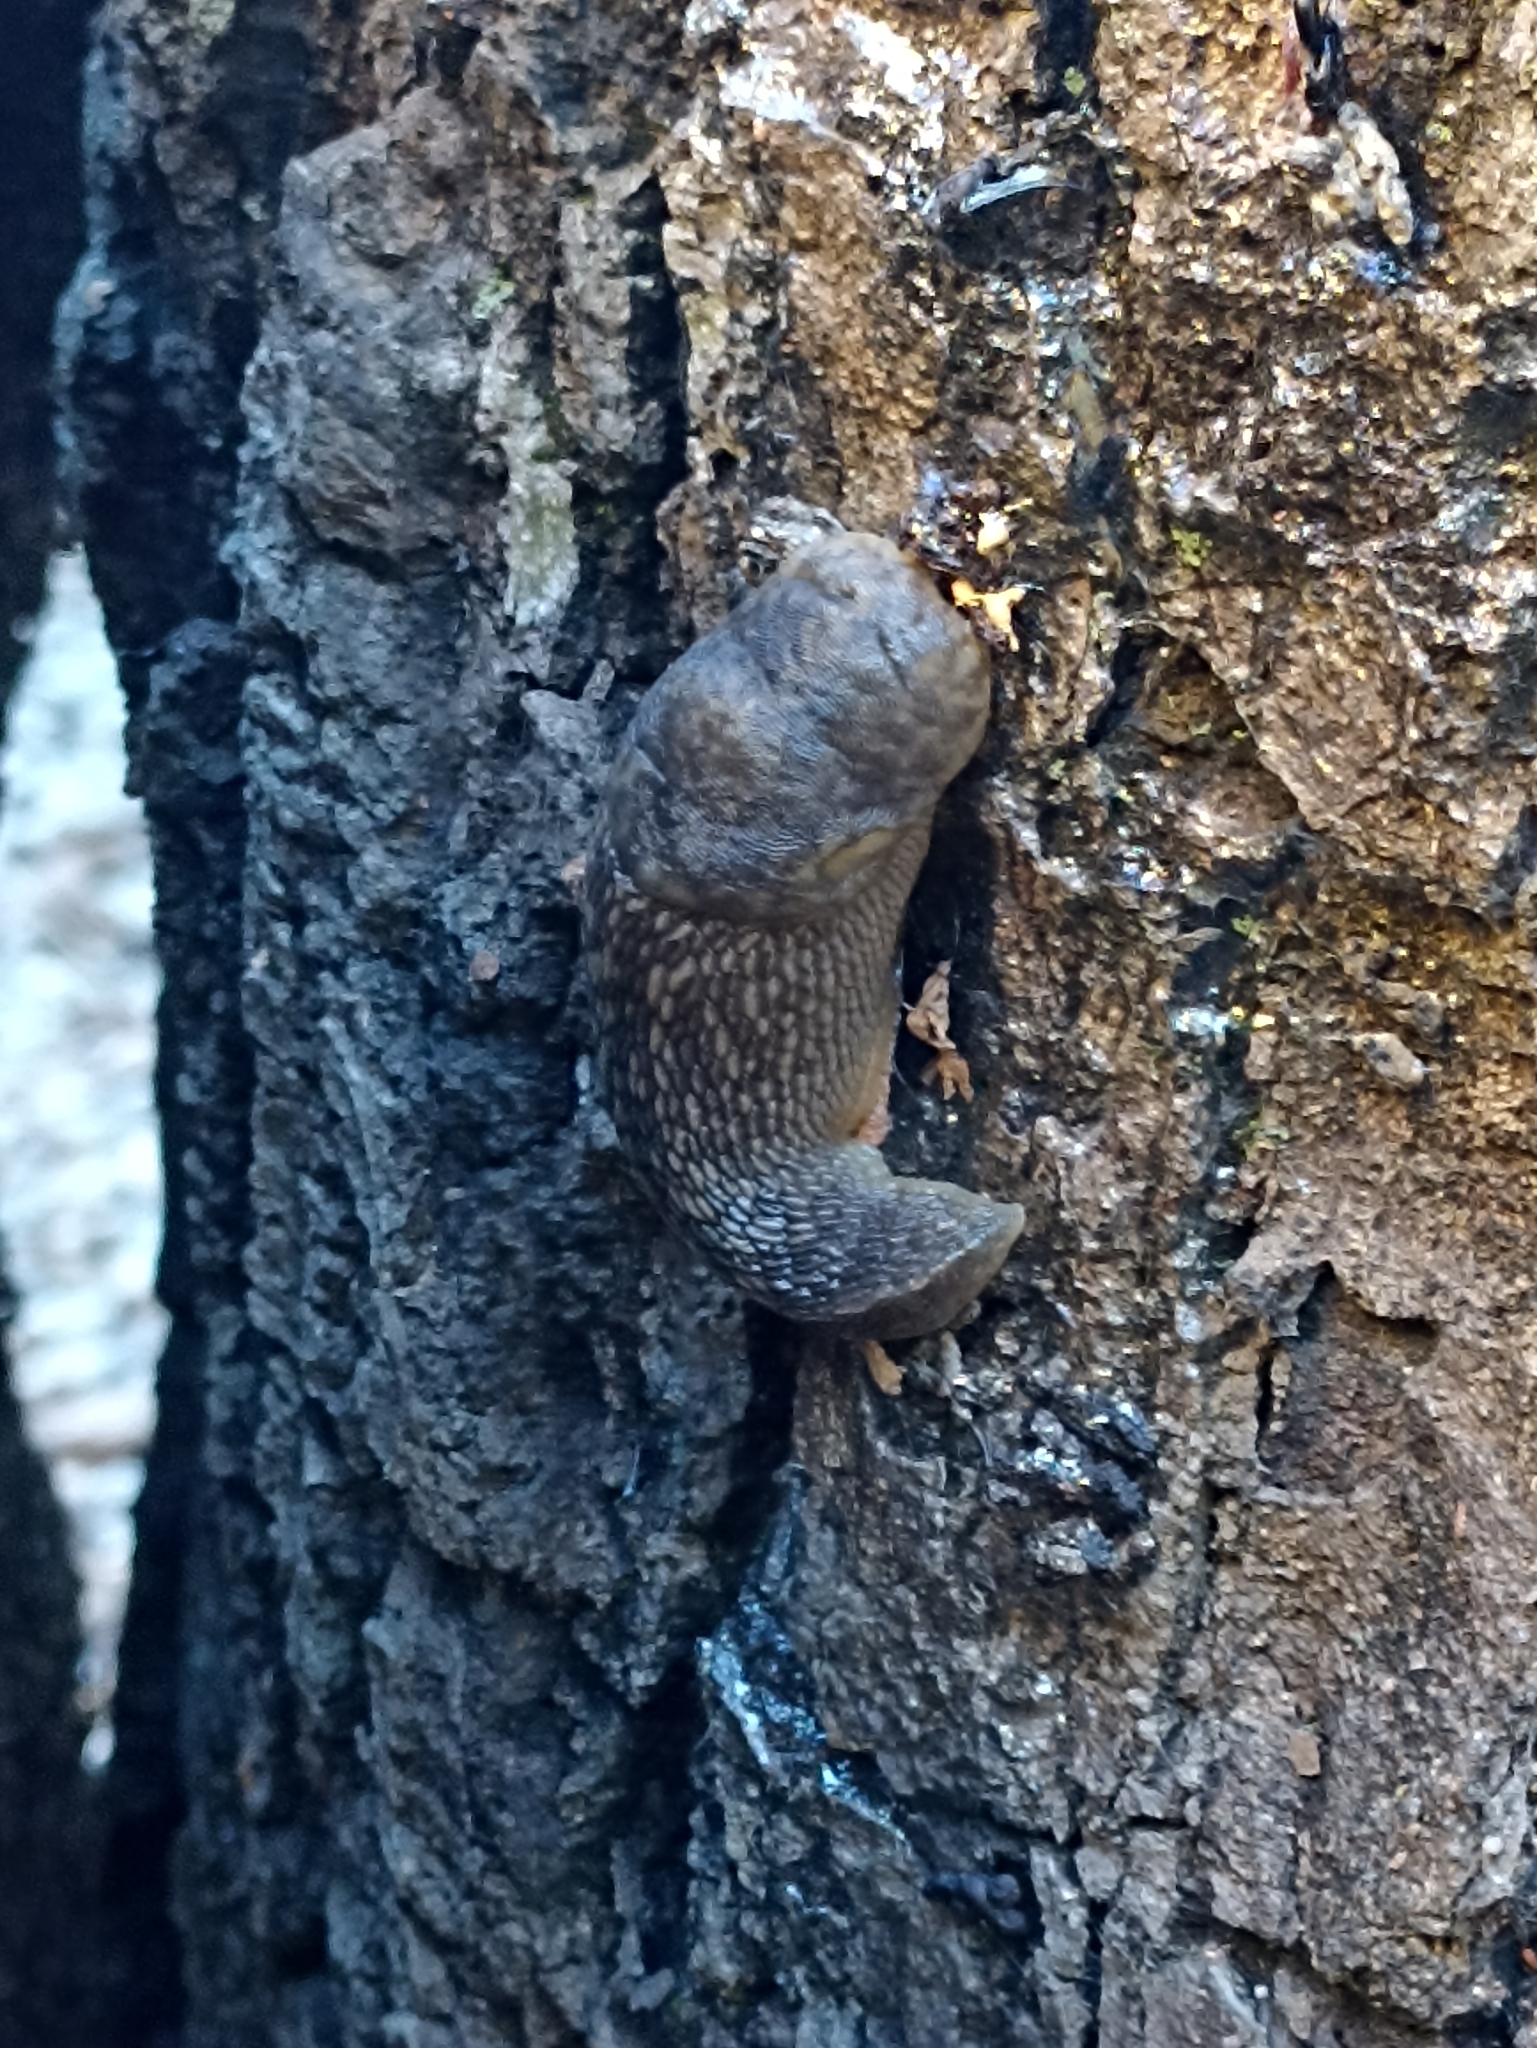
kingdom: Animalia
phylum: Mollusca
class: Gastropoda
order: Stylommatophora
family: Limacidae
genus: Limacus
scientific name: Limacus flavus
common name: Yellow gardenslug
